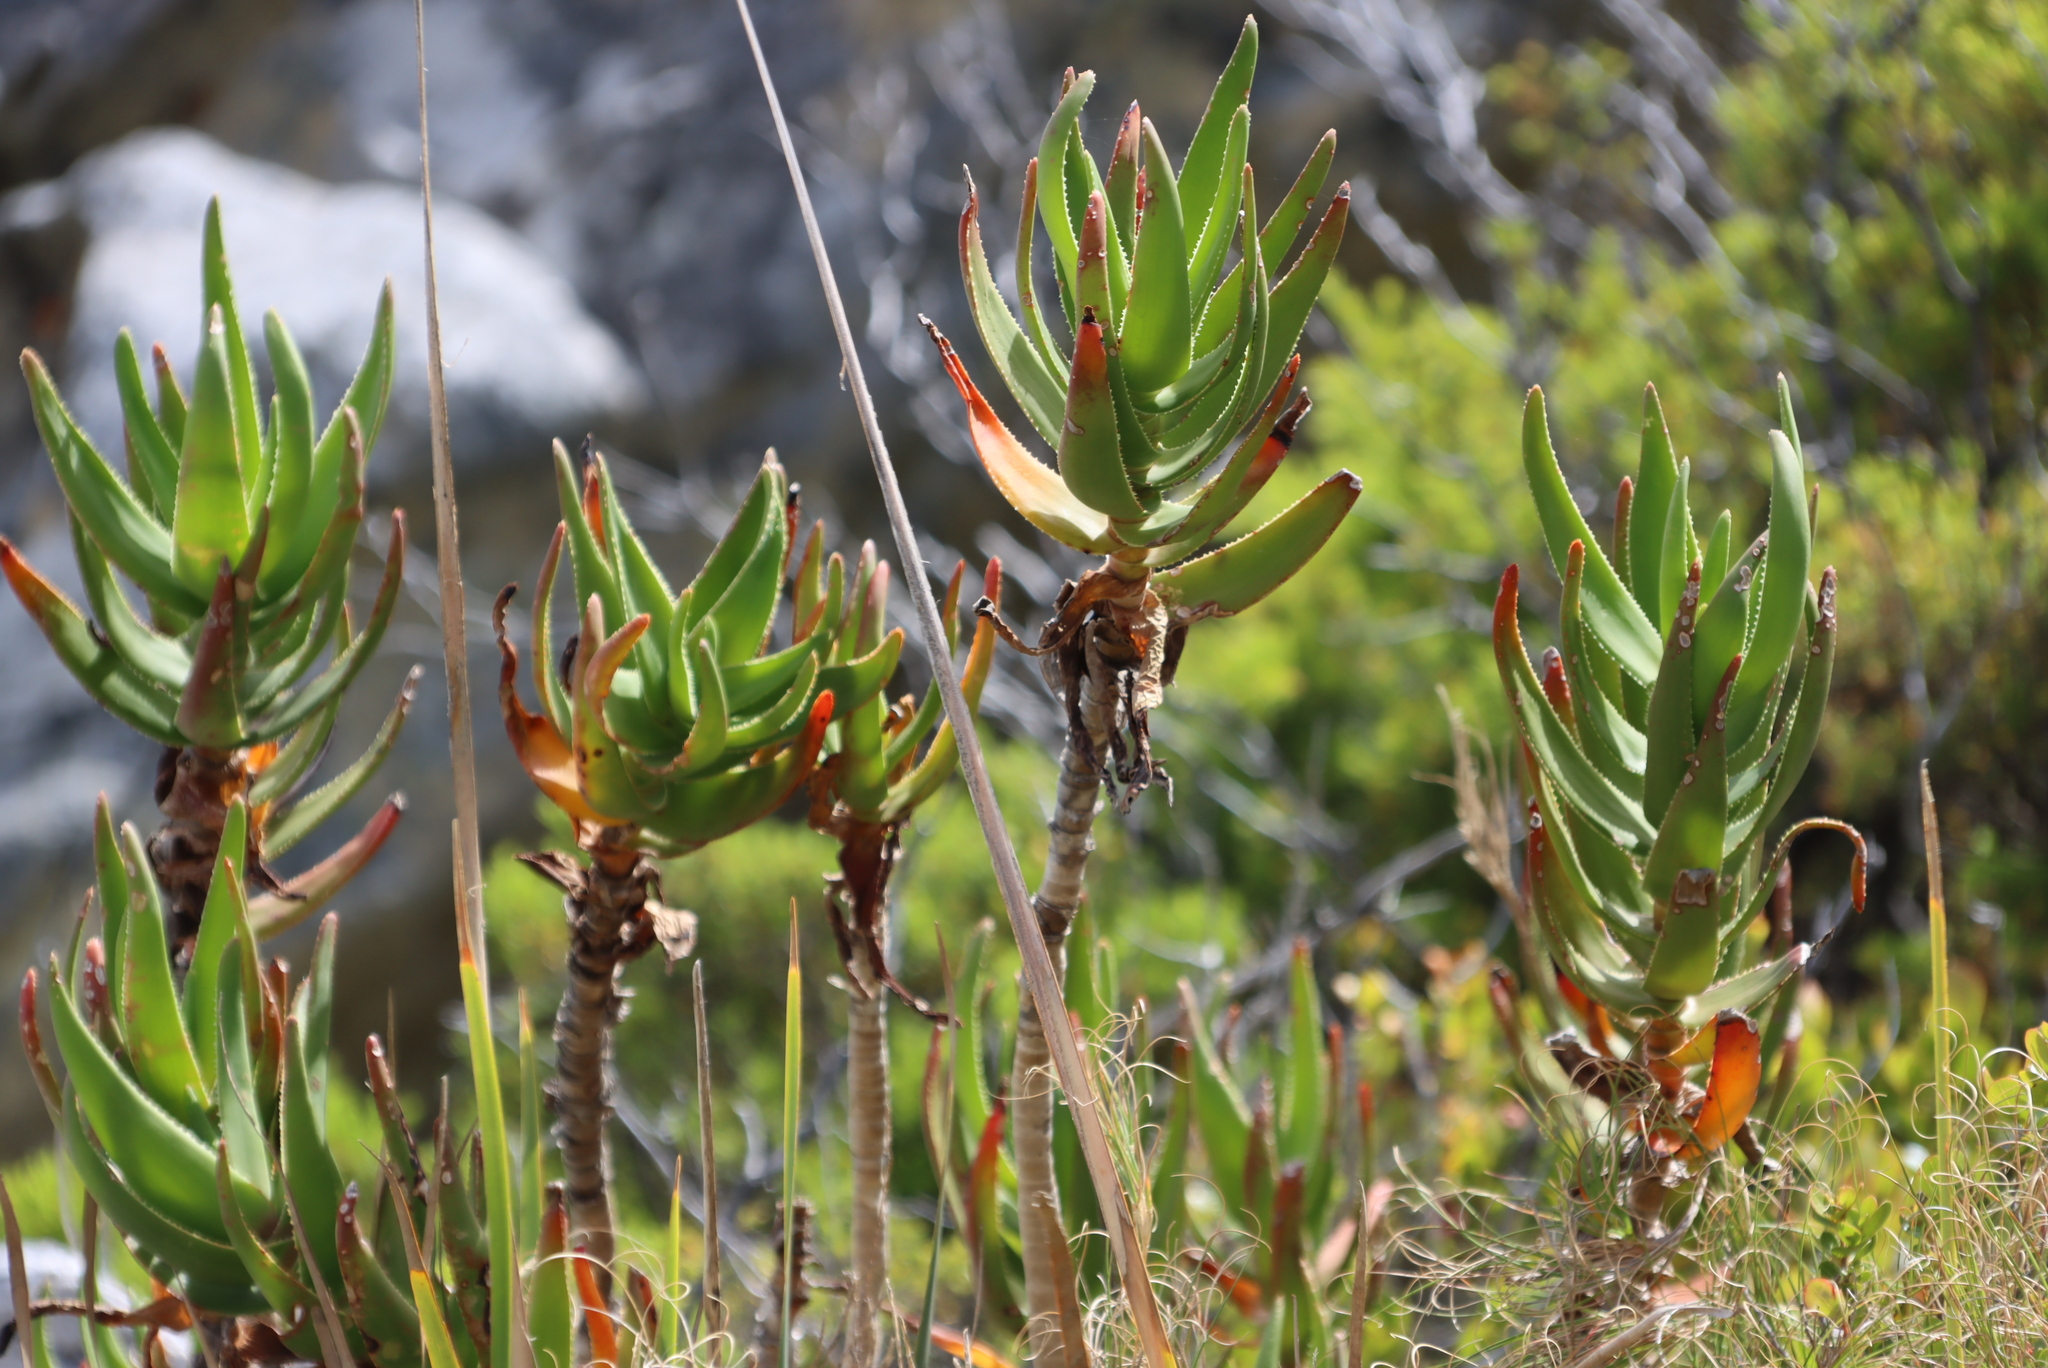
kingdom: Plantae
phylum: Tracheophyta
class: Liliopsida
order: Asparagales
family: Asphodelaceae
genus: Aloiampelos
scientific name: Aloiampelos commixta
